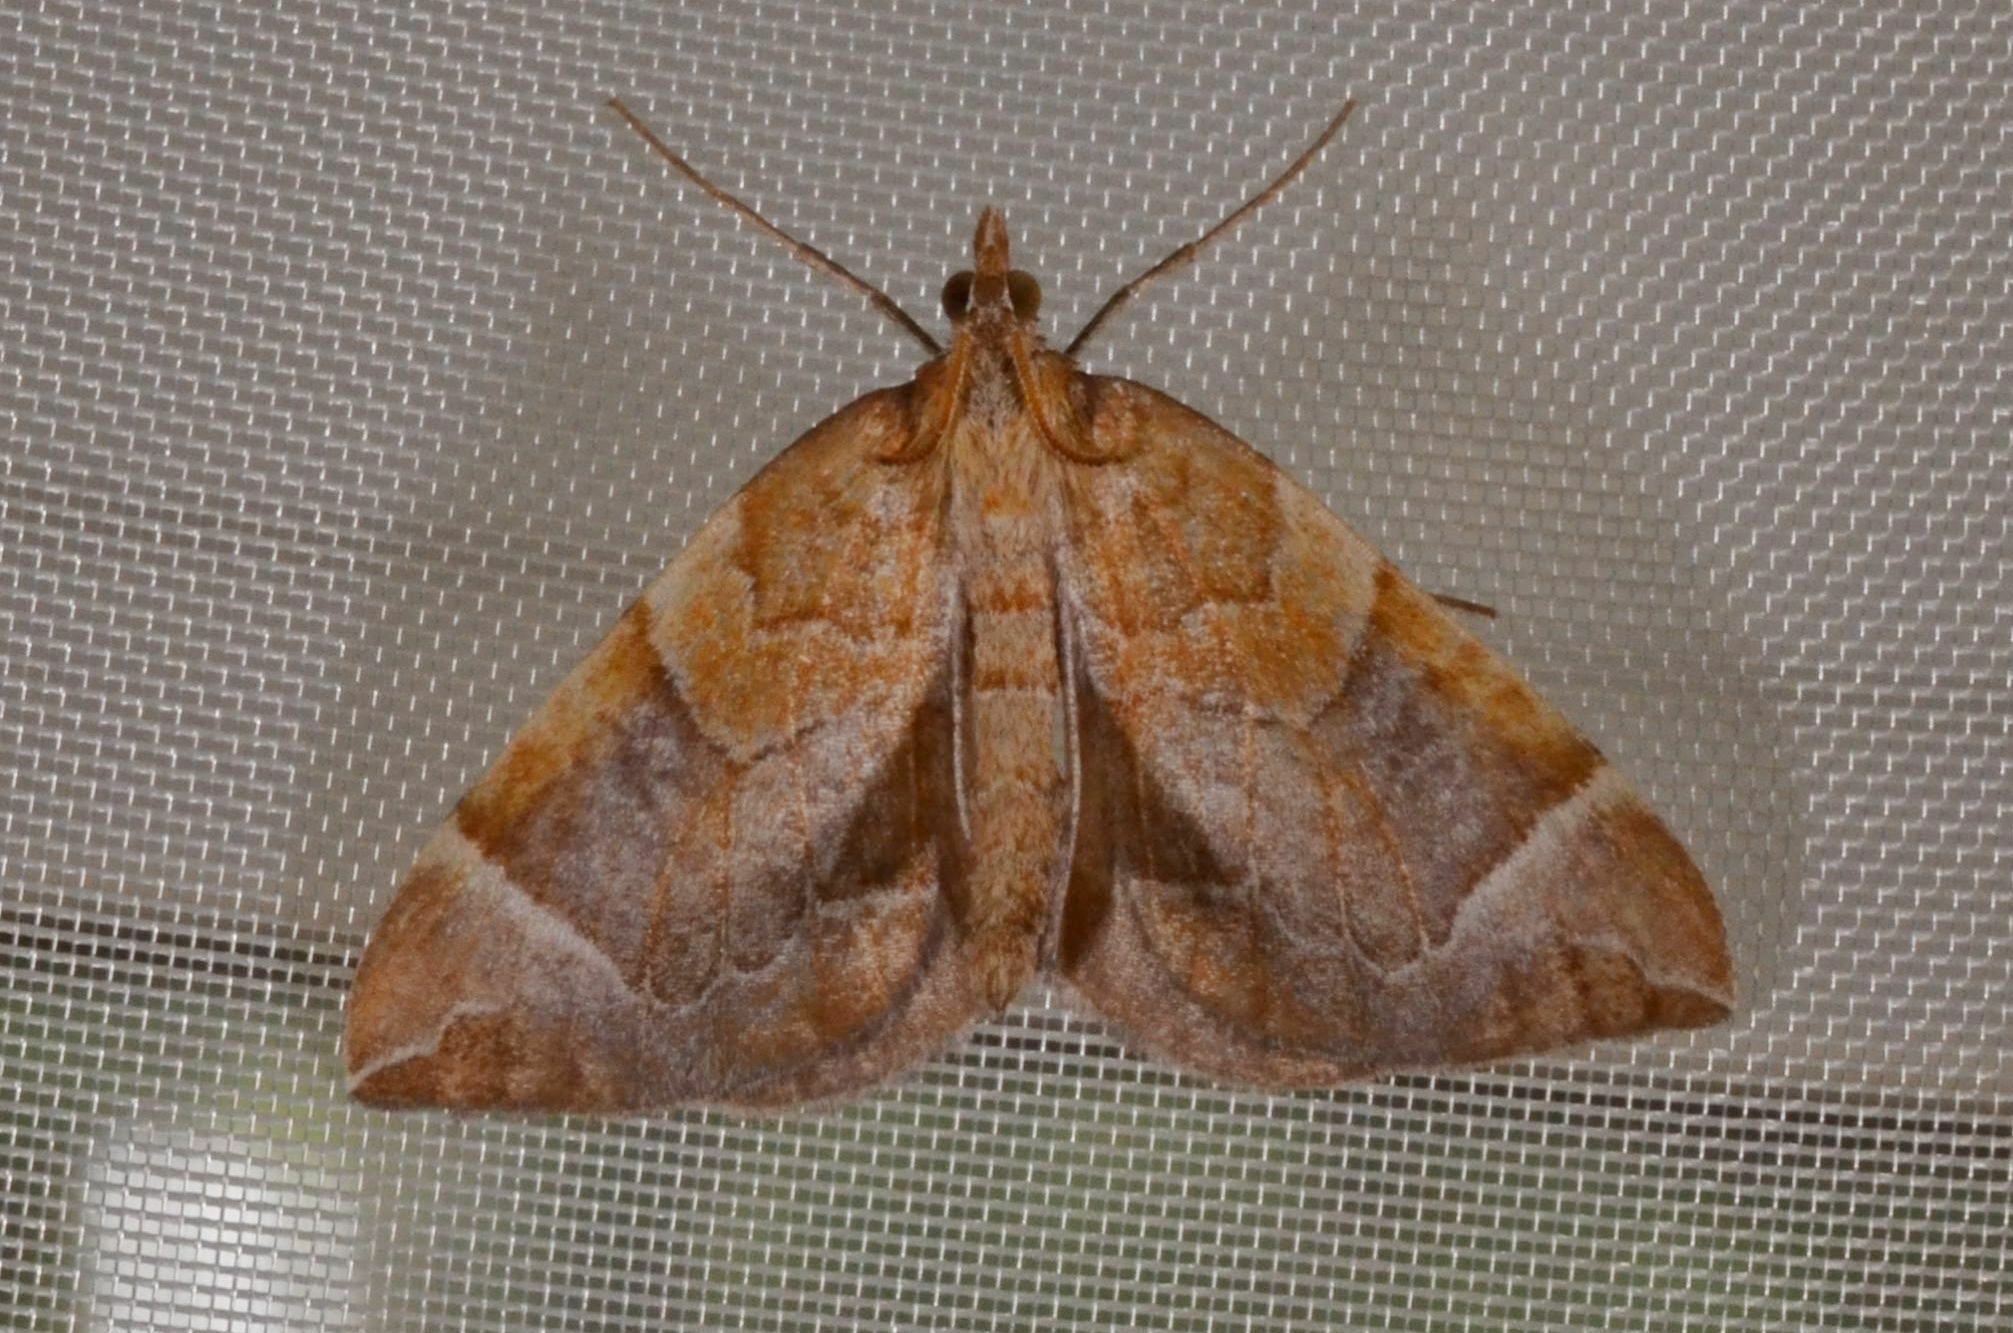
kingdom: Animalia
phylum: Arthropoda
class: Insecta
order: Lepidoptera
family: Geometridae
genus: Eulithis
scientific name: Eulithis testata
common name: Chevron
